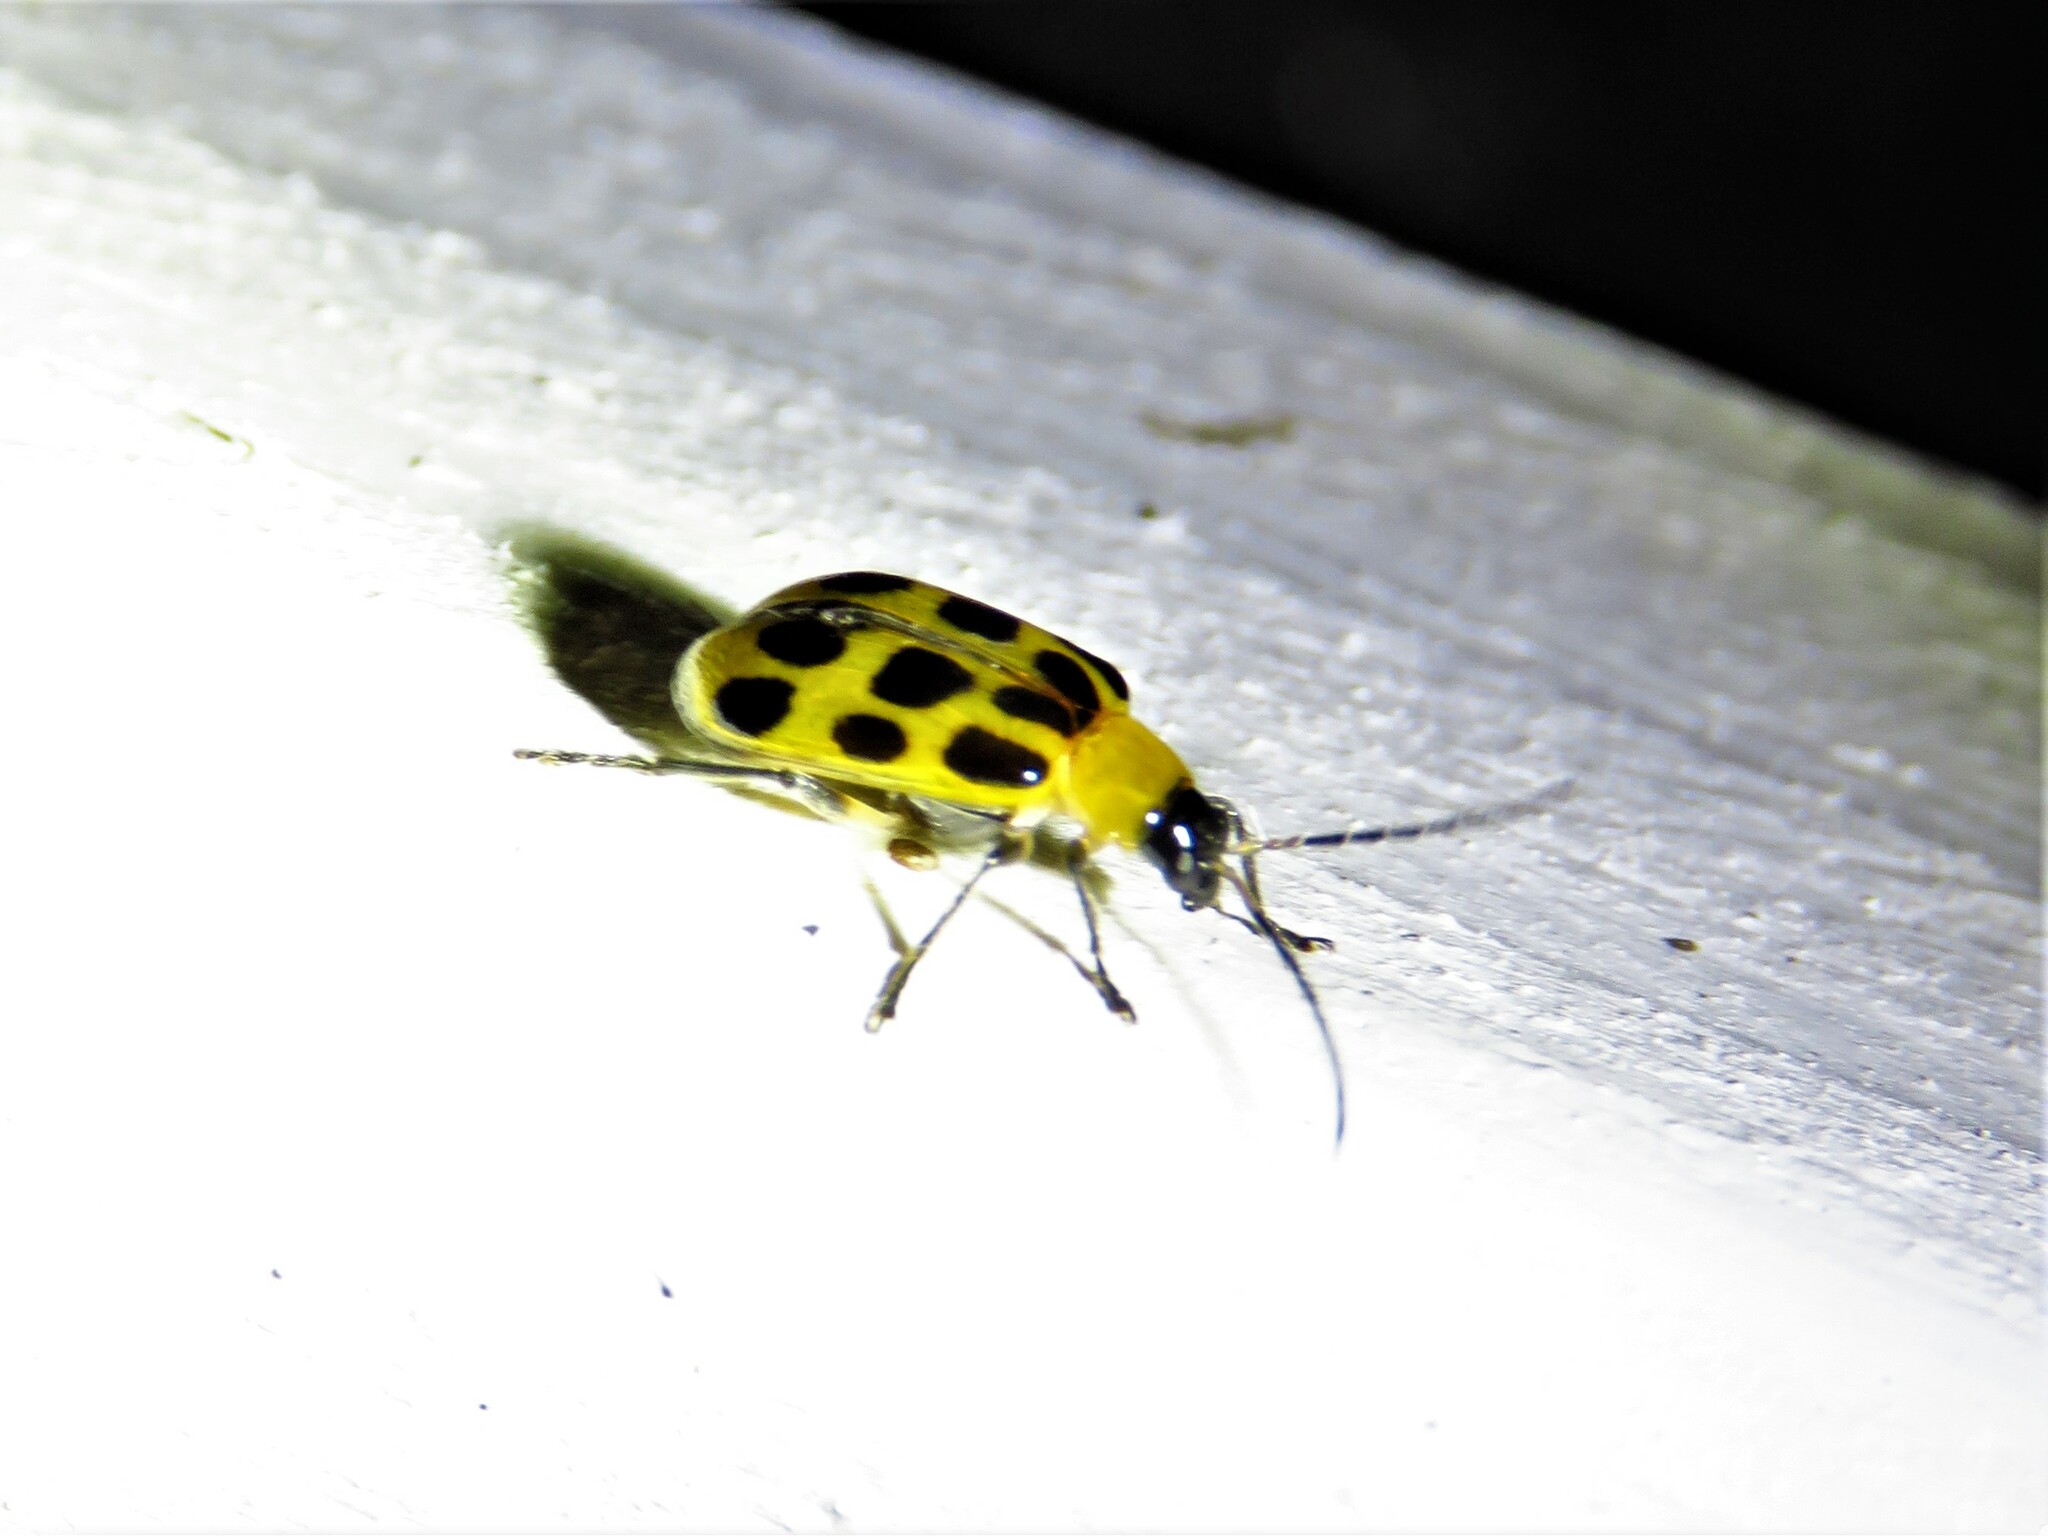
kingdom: Animalia
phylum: Arthropoda
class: Insecta
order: Coleoptera
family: Chrysomelidae
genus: Diabrotica
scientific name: Diabrotica undecimpunctata
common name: Spotted cucumber beetle
